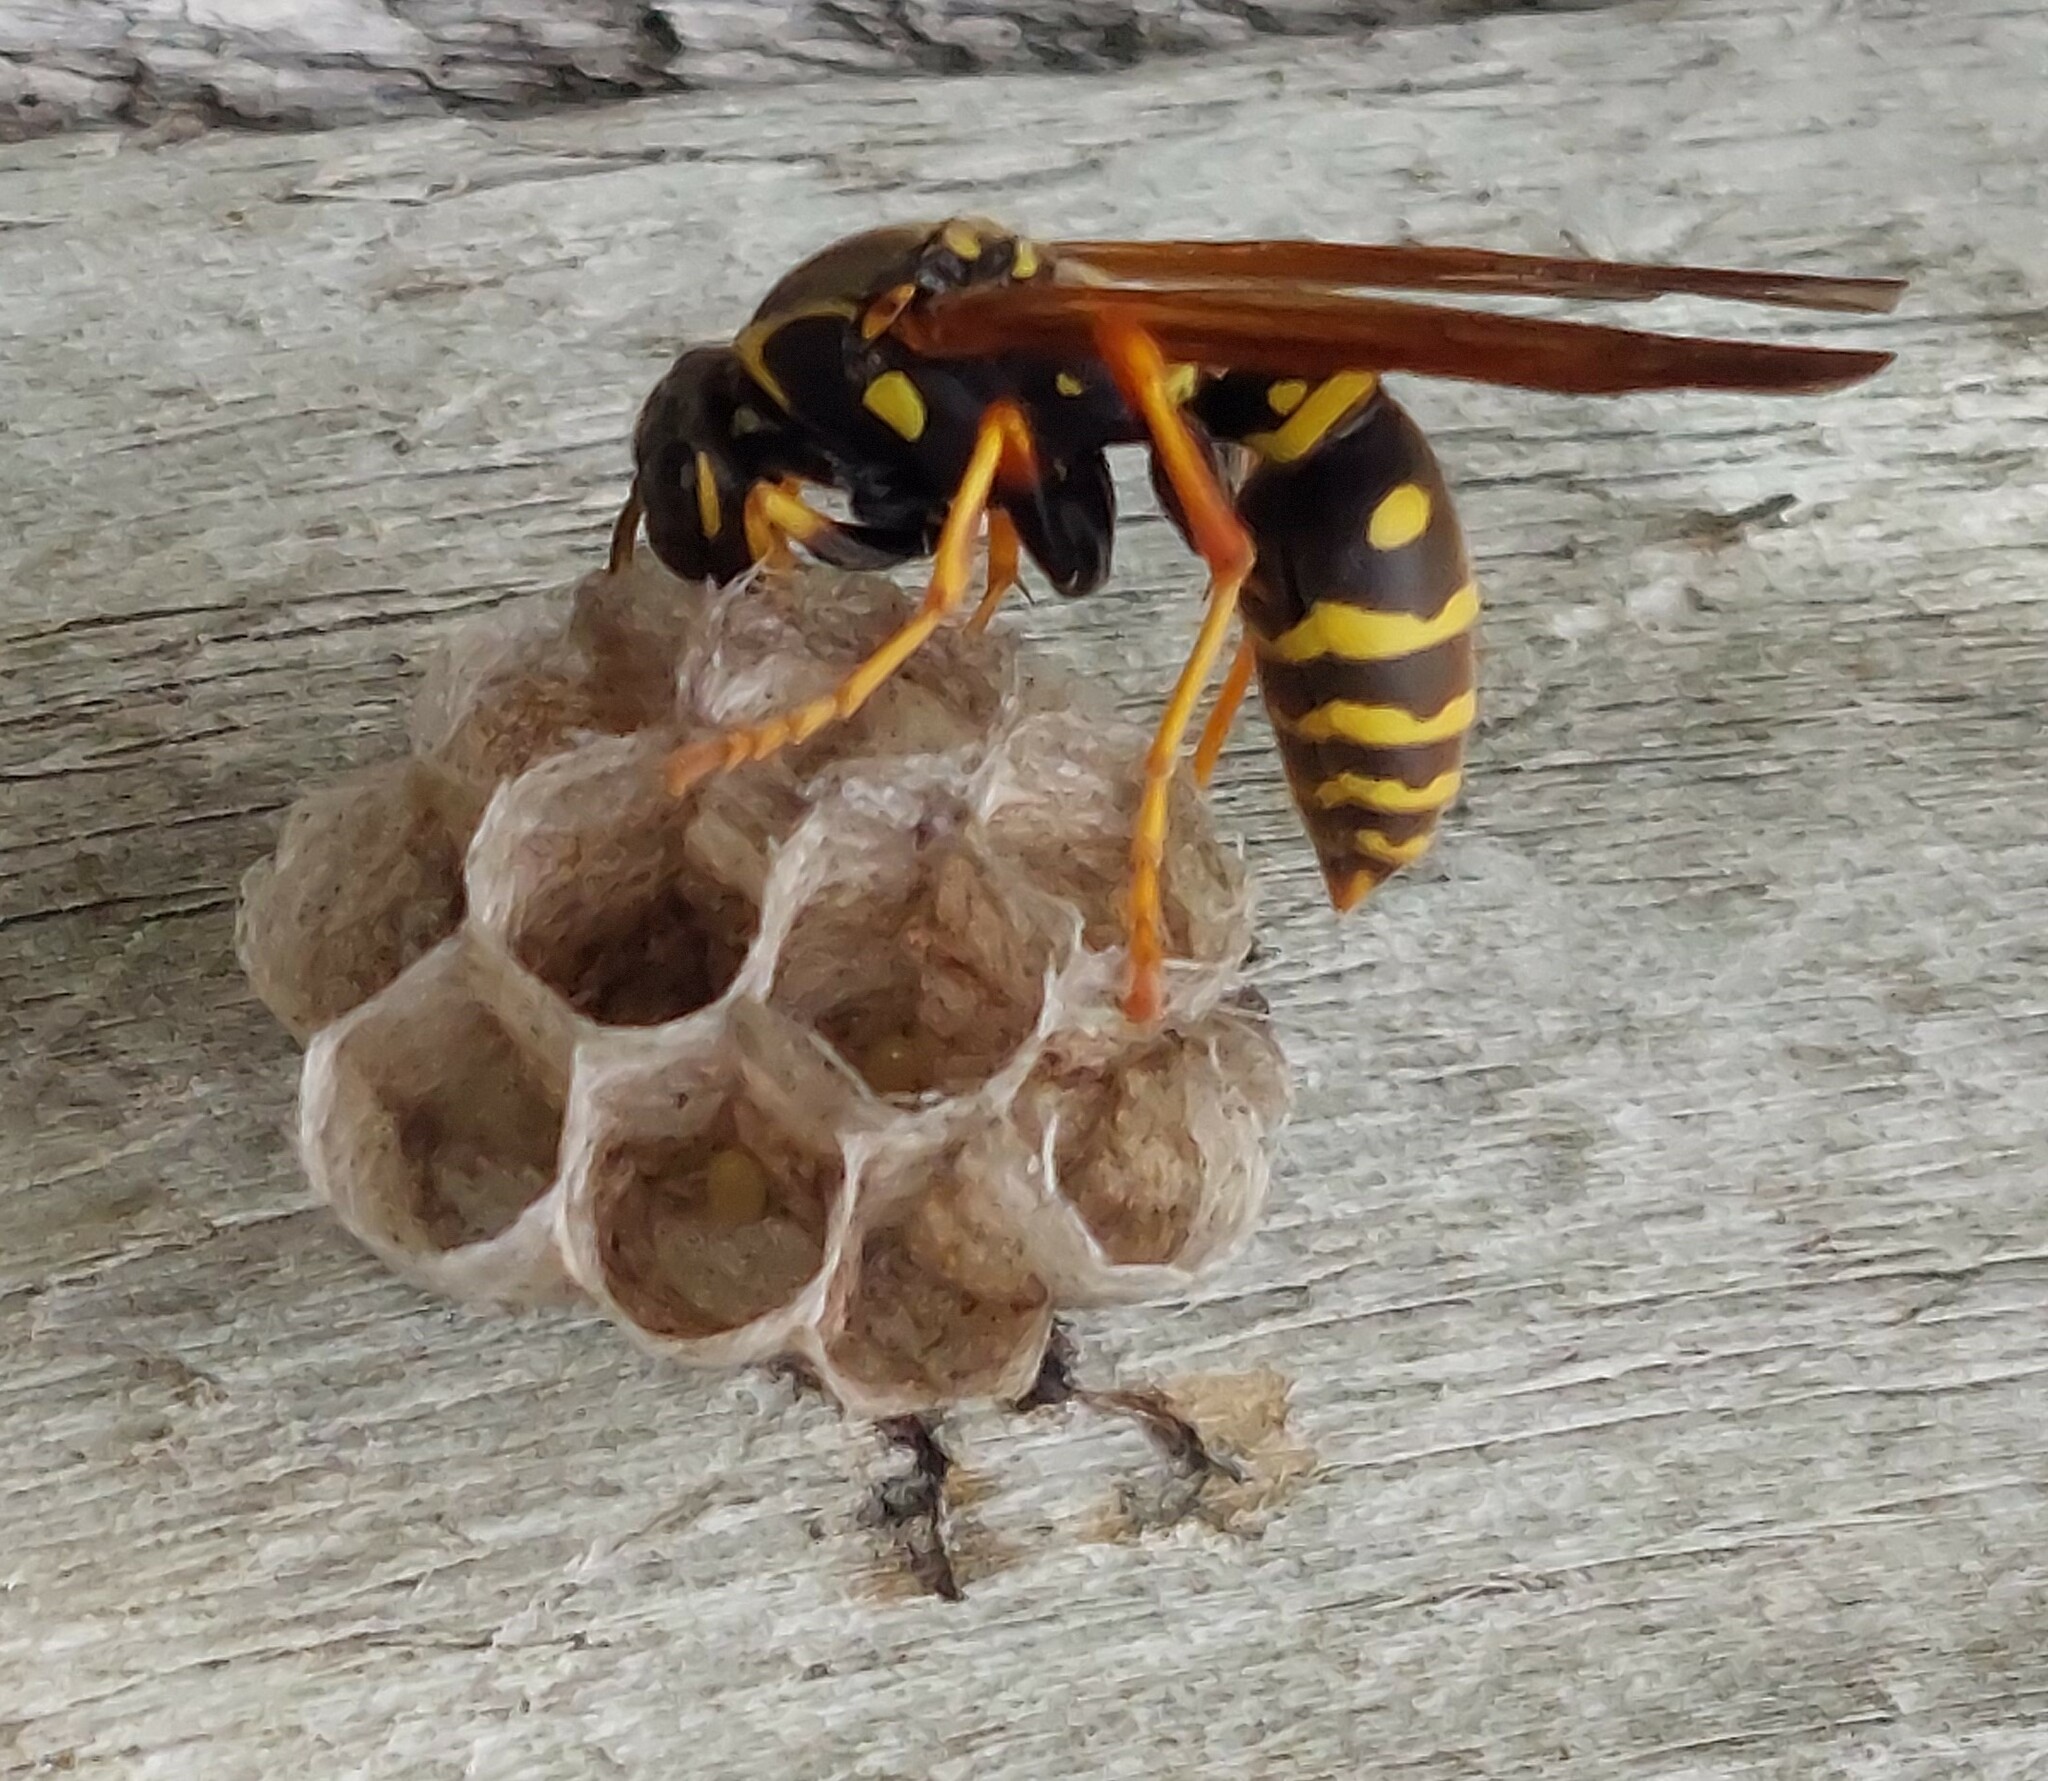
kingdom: Animalia
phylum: Arthropoda
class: Insecta
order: Hymenoptera
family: Eumenidae
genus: Polistes
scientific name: Polistes chinensis
